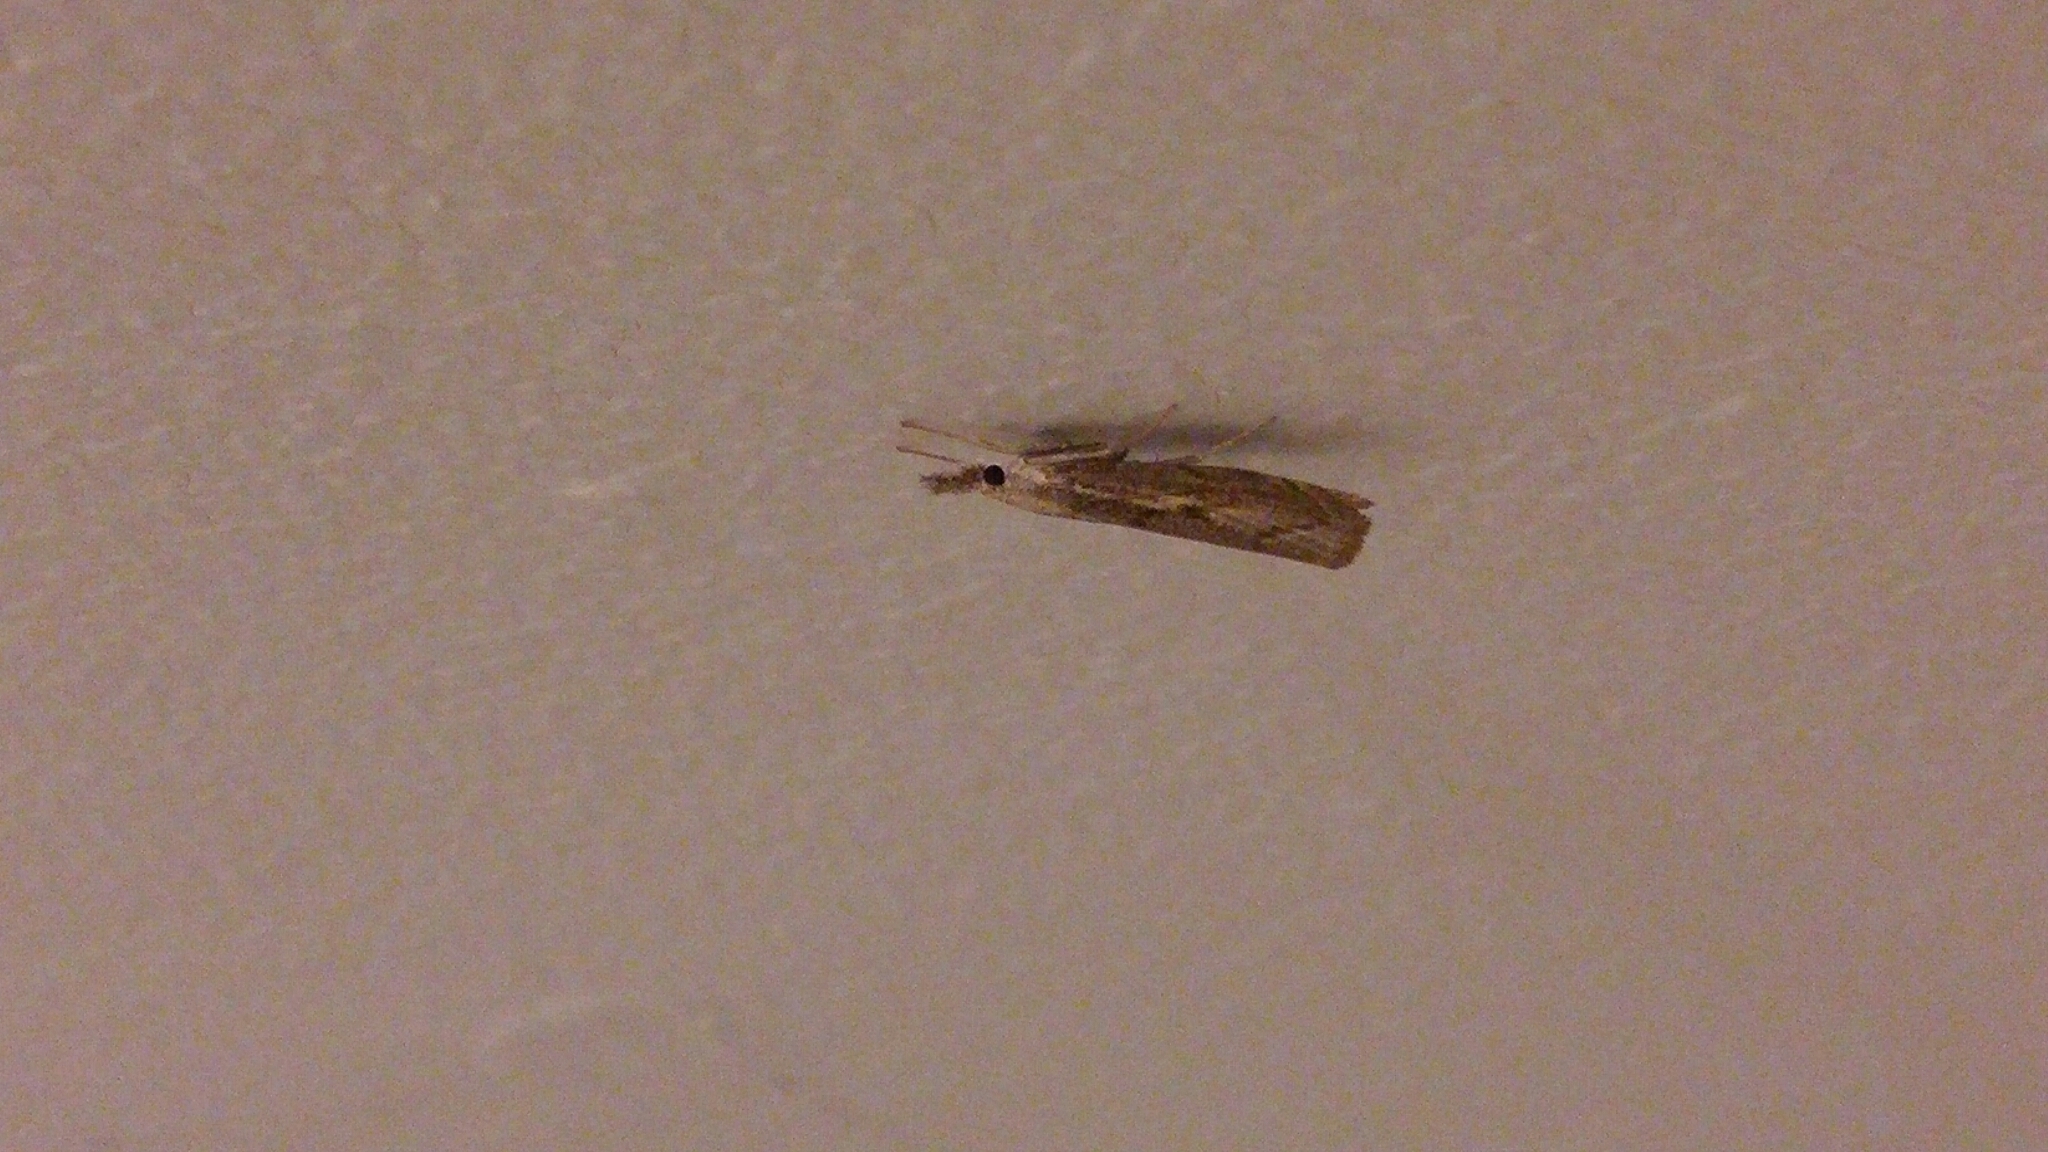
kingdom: Animalia
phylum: Arthropoda
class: Insecta
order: Lepidoptera
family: Crambidae
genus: Agriphila
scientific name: Agriphila geniculea
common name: Elbow-stripe grass-veneer
